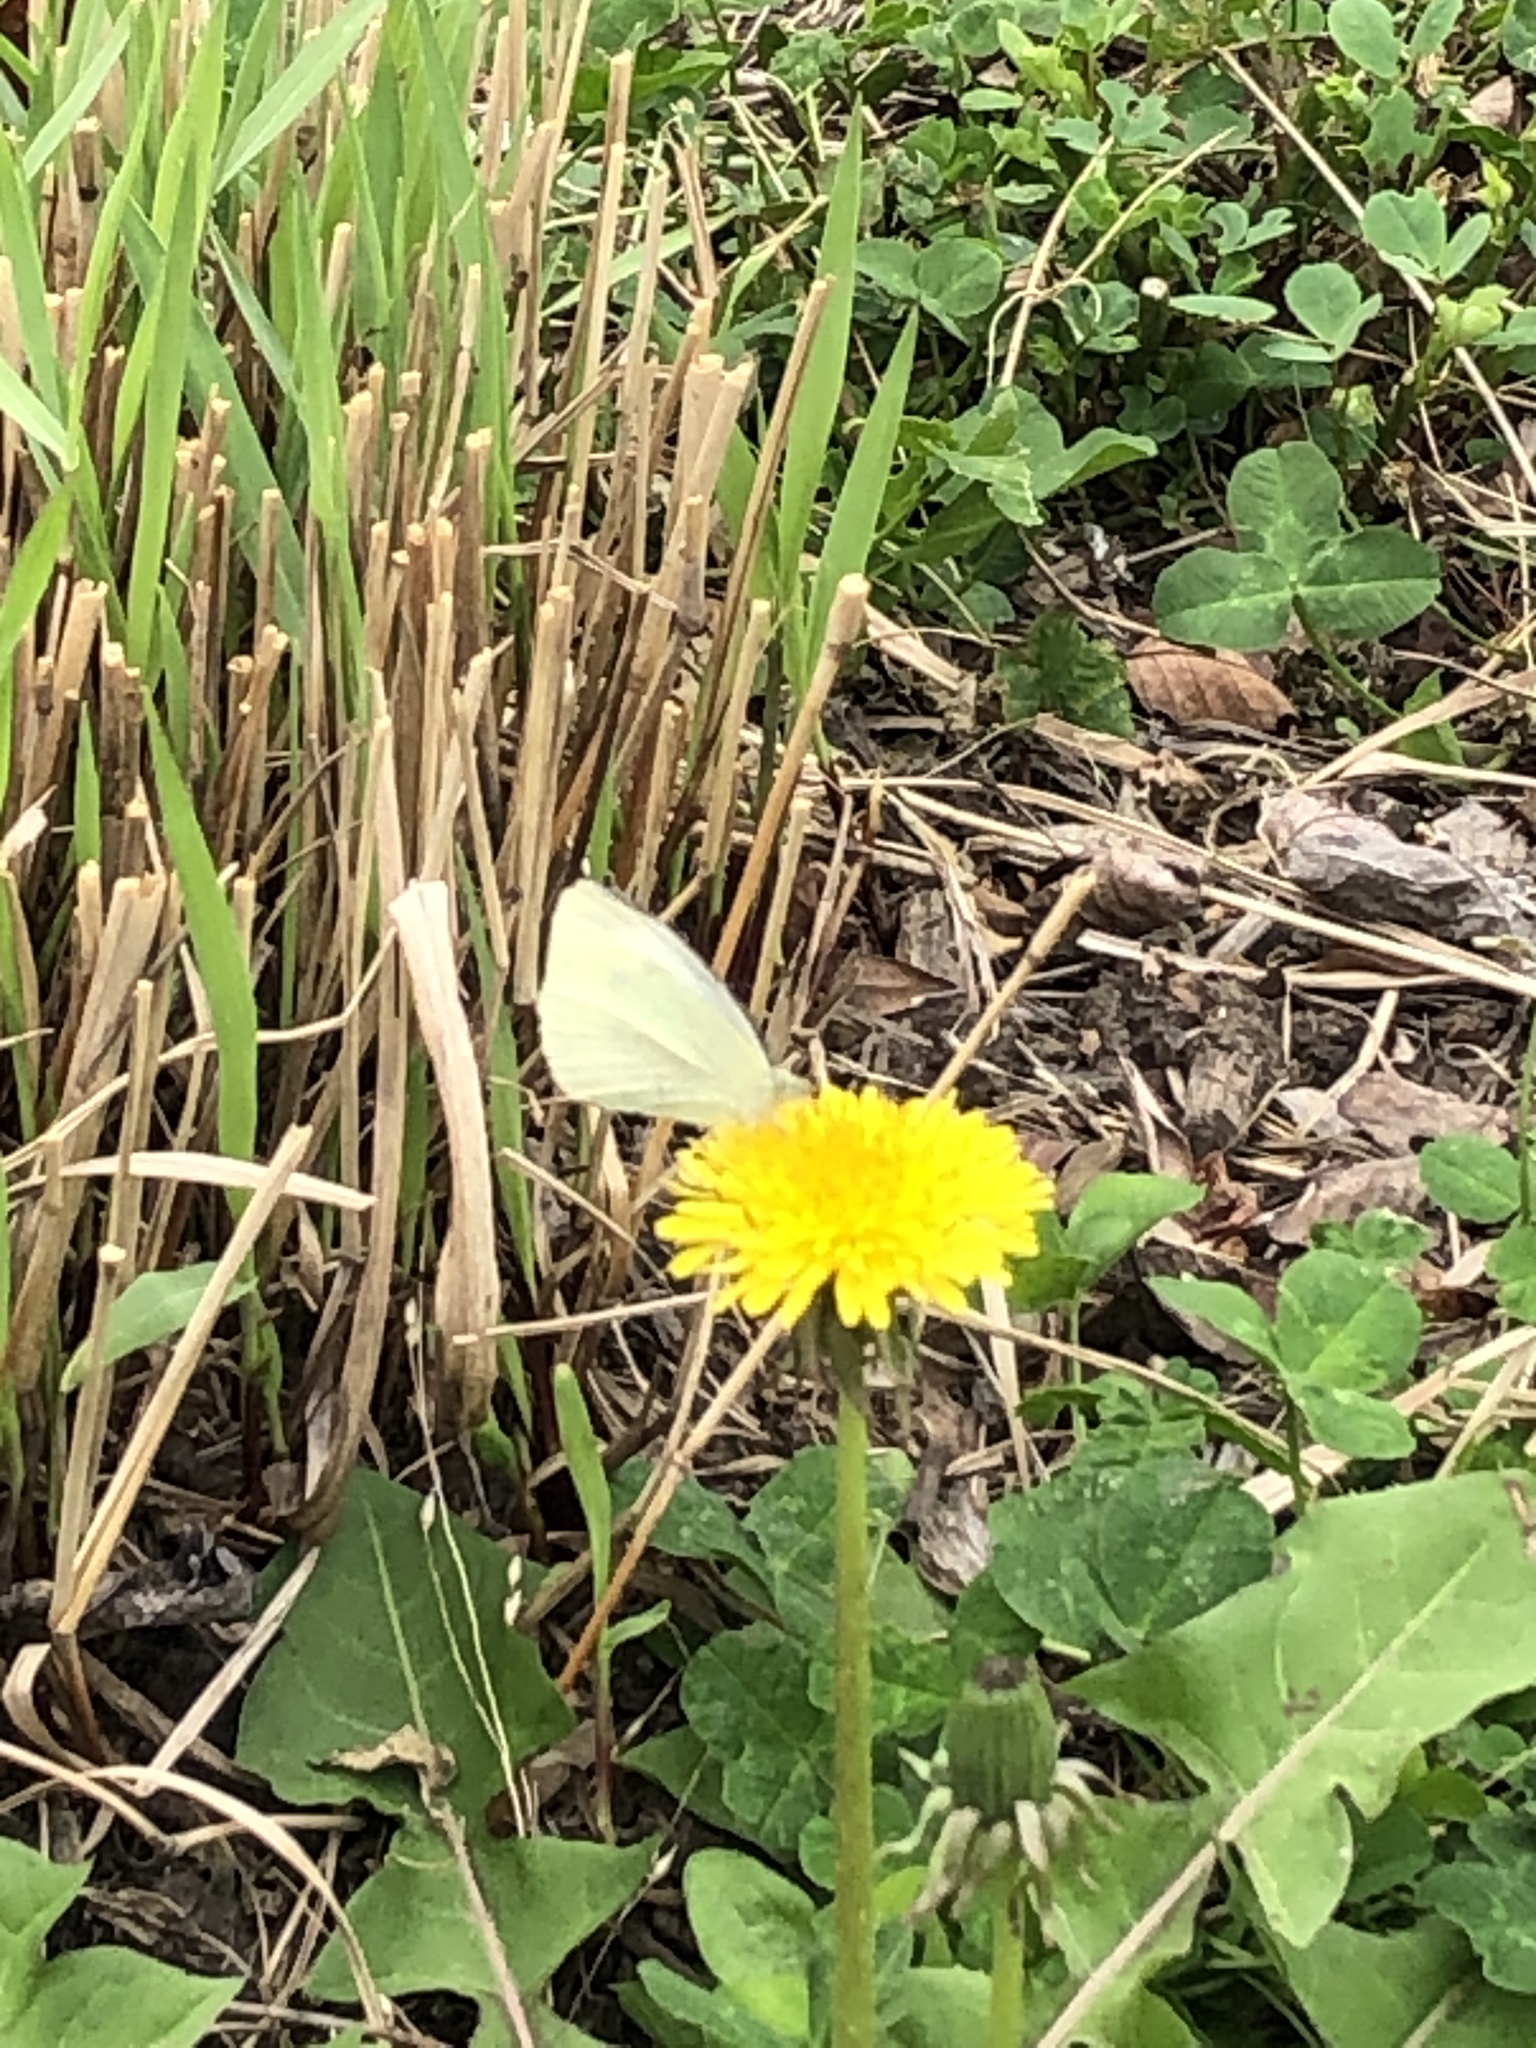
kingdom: Animalia
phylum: Arthropoda
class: Insecta
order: Lepidoptera
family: Pieridae
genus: Pieris
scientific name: Pieris rapae
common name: Small white
